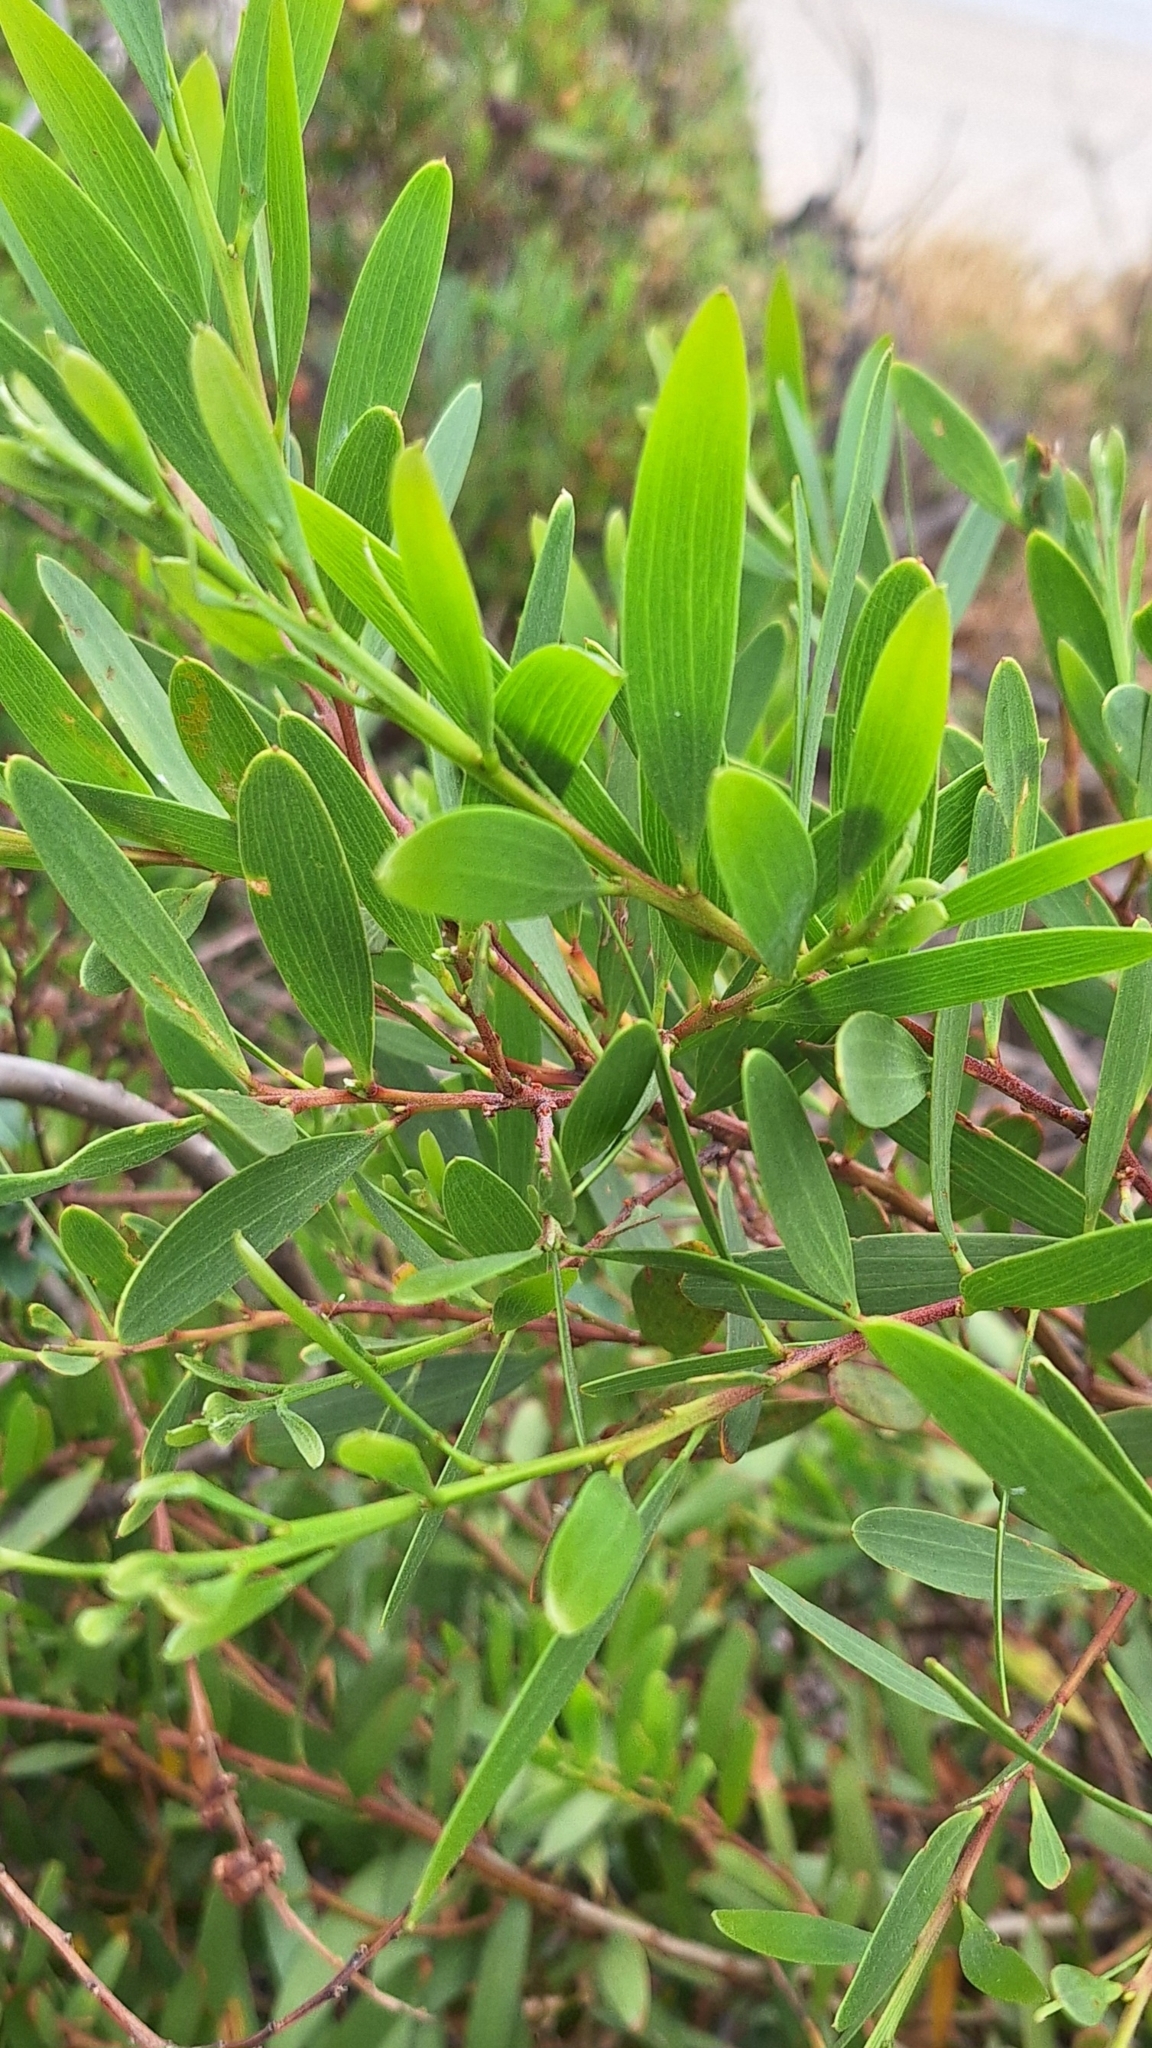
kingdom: Plantae
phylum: Tracheophyta
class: Magnoliopsida
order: Fabales
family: Fabaceae
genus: Acacia
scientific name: Acacia longifolia
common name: Sydney golden wattle
